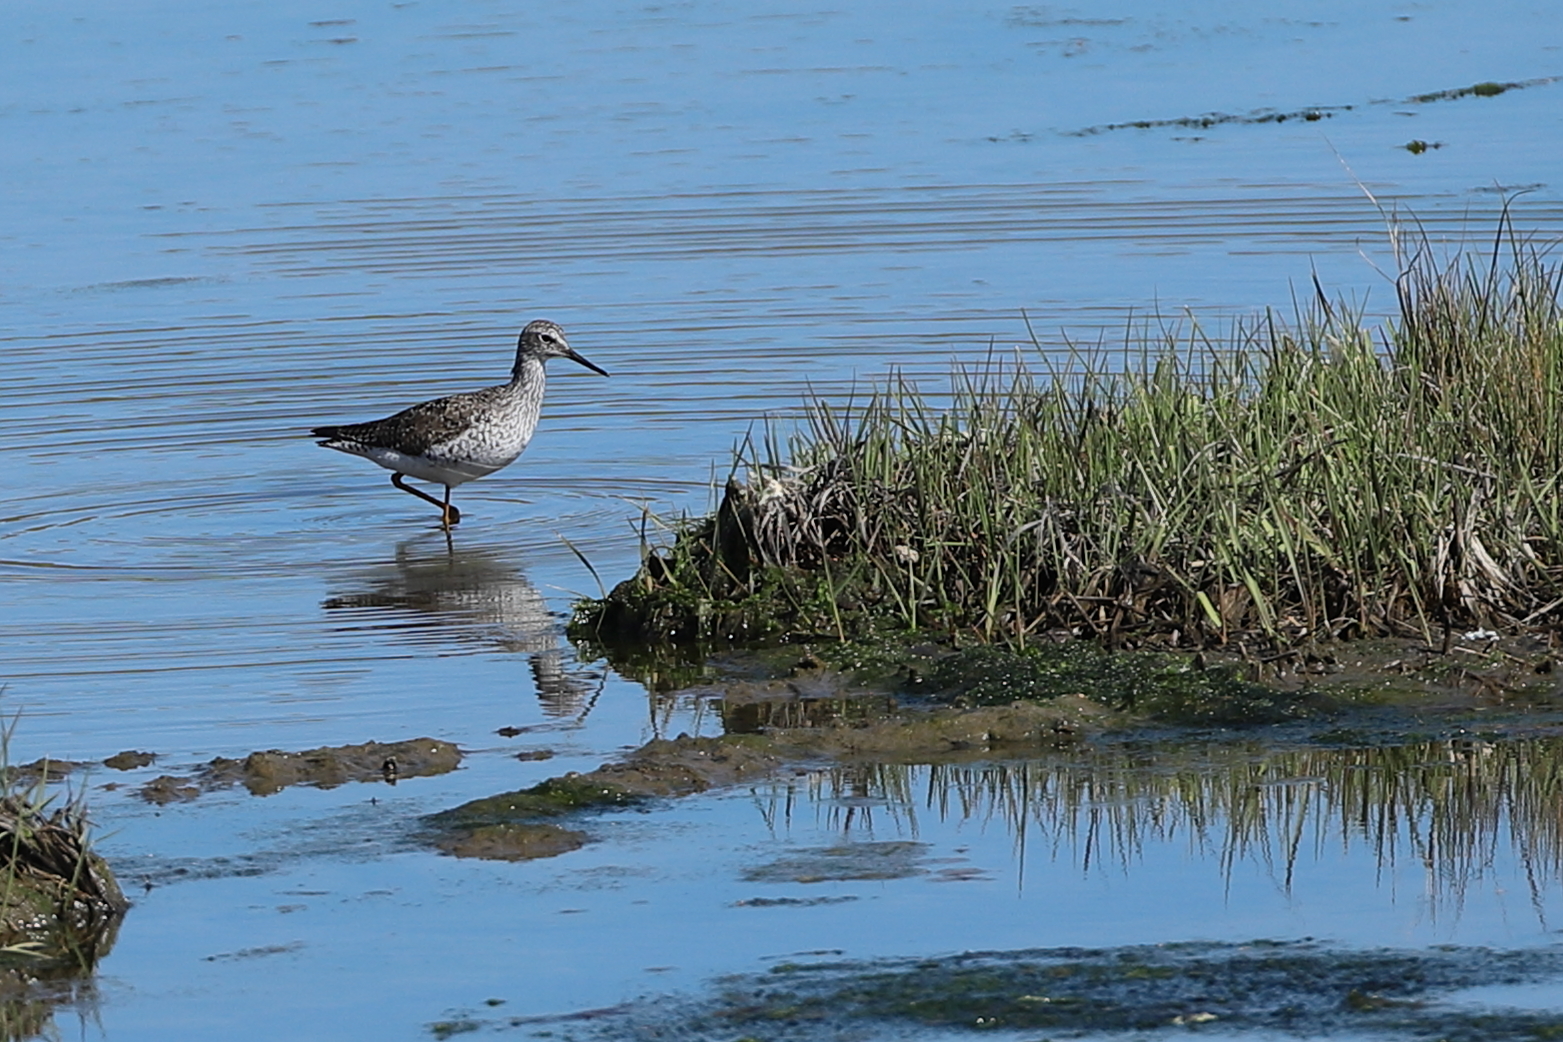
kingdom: Animalia
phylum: Chordata
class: Aves
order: Charadriiformes
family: Scolopacidae
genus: Tringa
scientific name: Tringa flavipes
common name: Lesser yellowlegs
